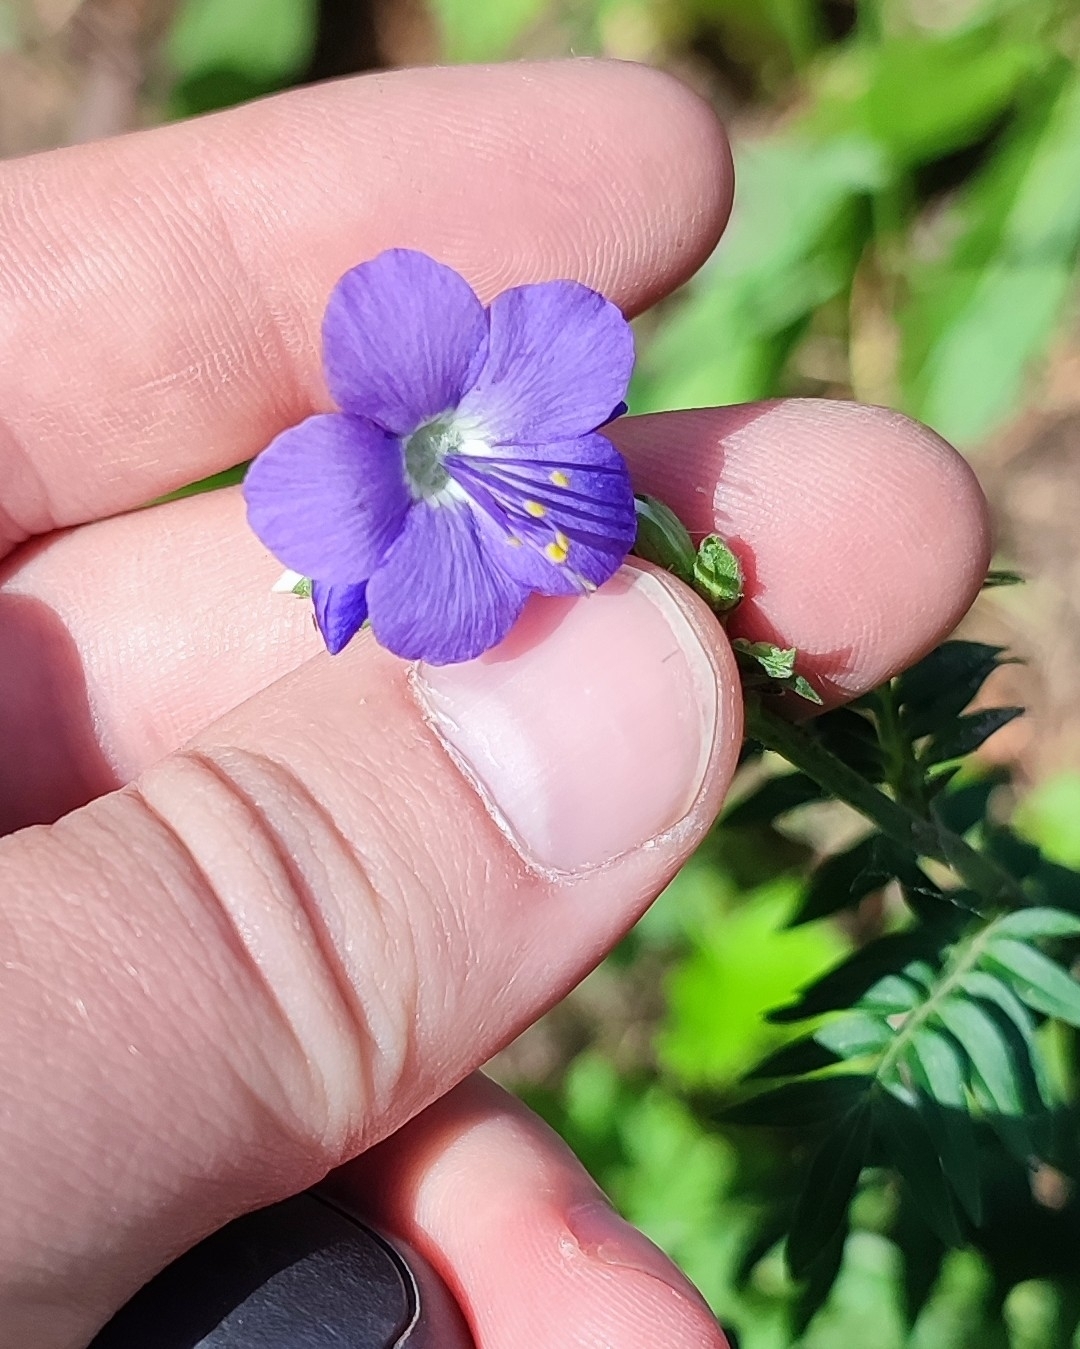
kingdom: Plantae
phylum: Tracheophyta
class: Magnoliopsida
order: Ericales
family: Polemoniaceae
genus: Polemonium
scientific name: Polemonium caeruleum
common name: Jacob's-ladder
